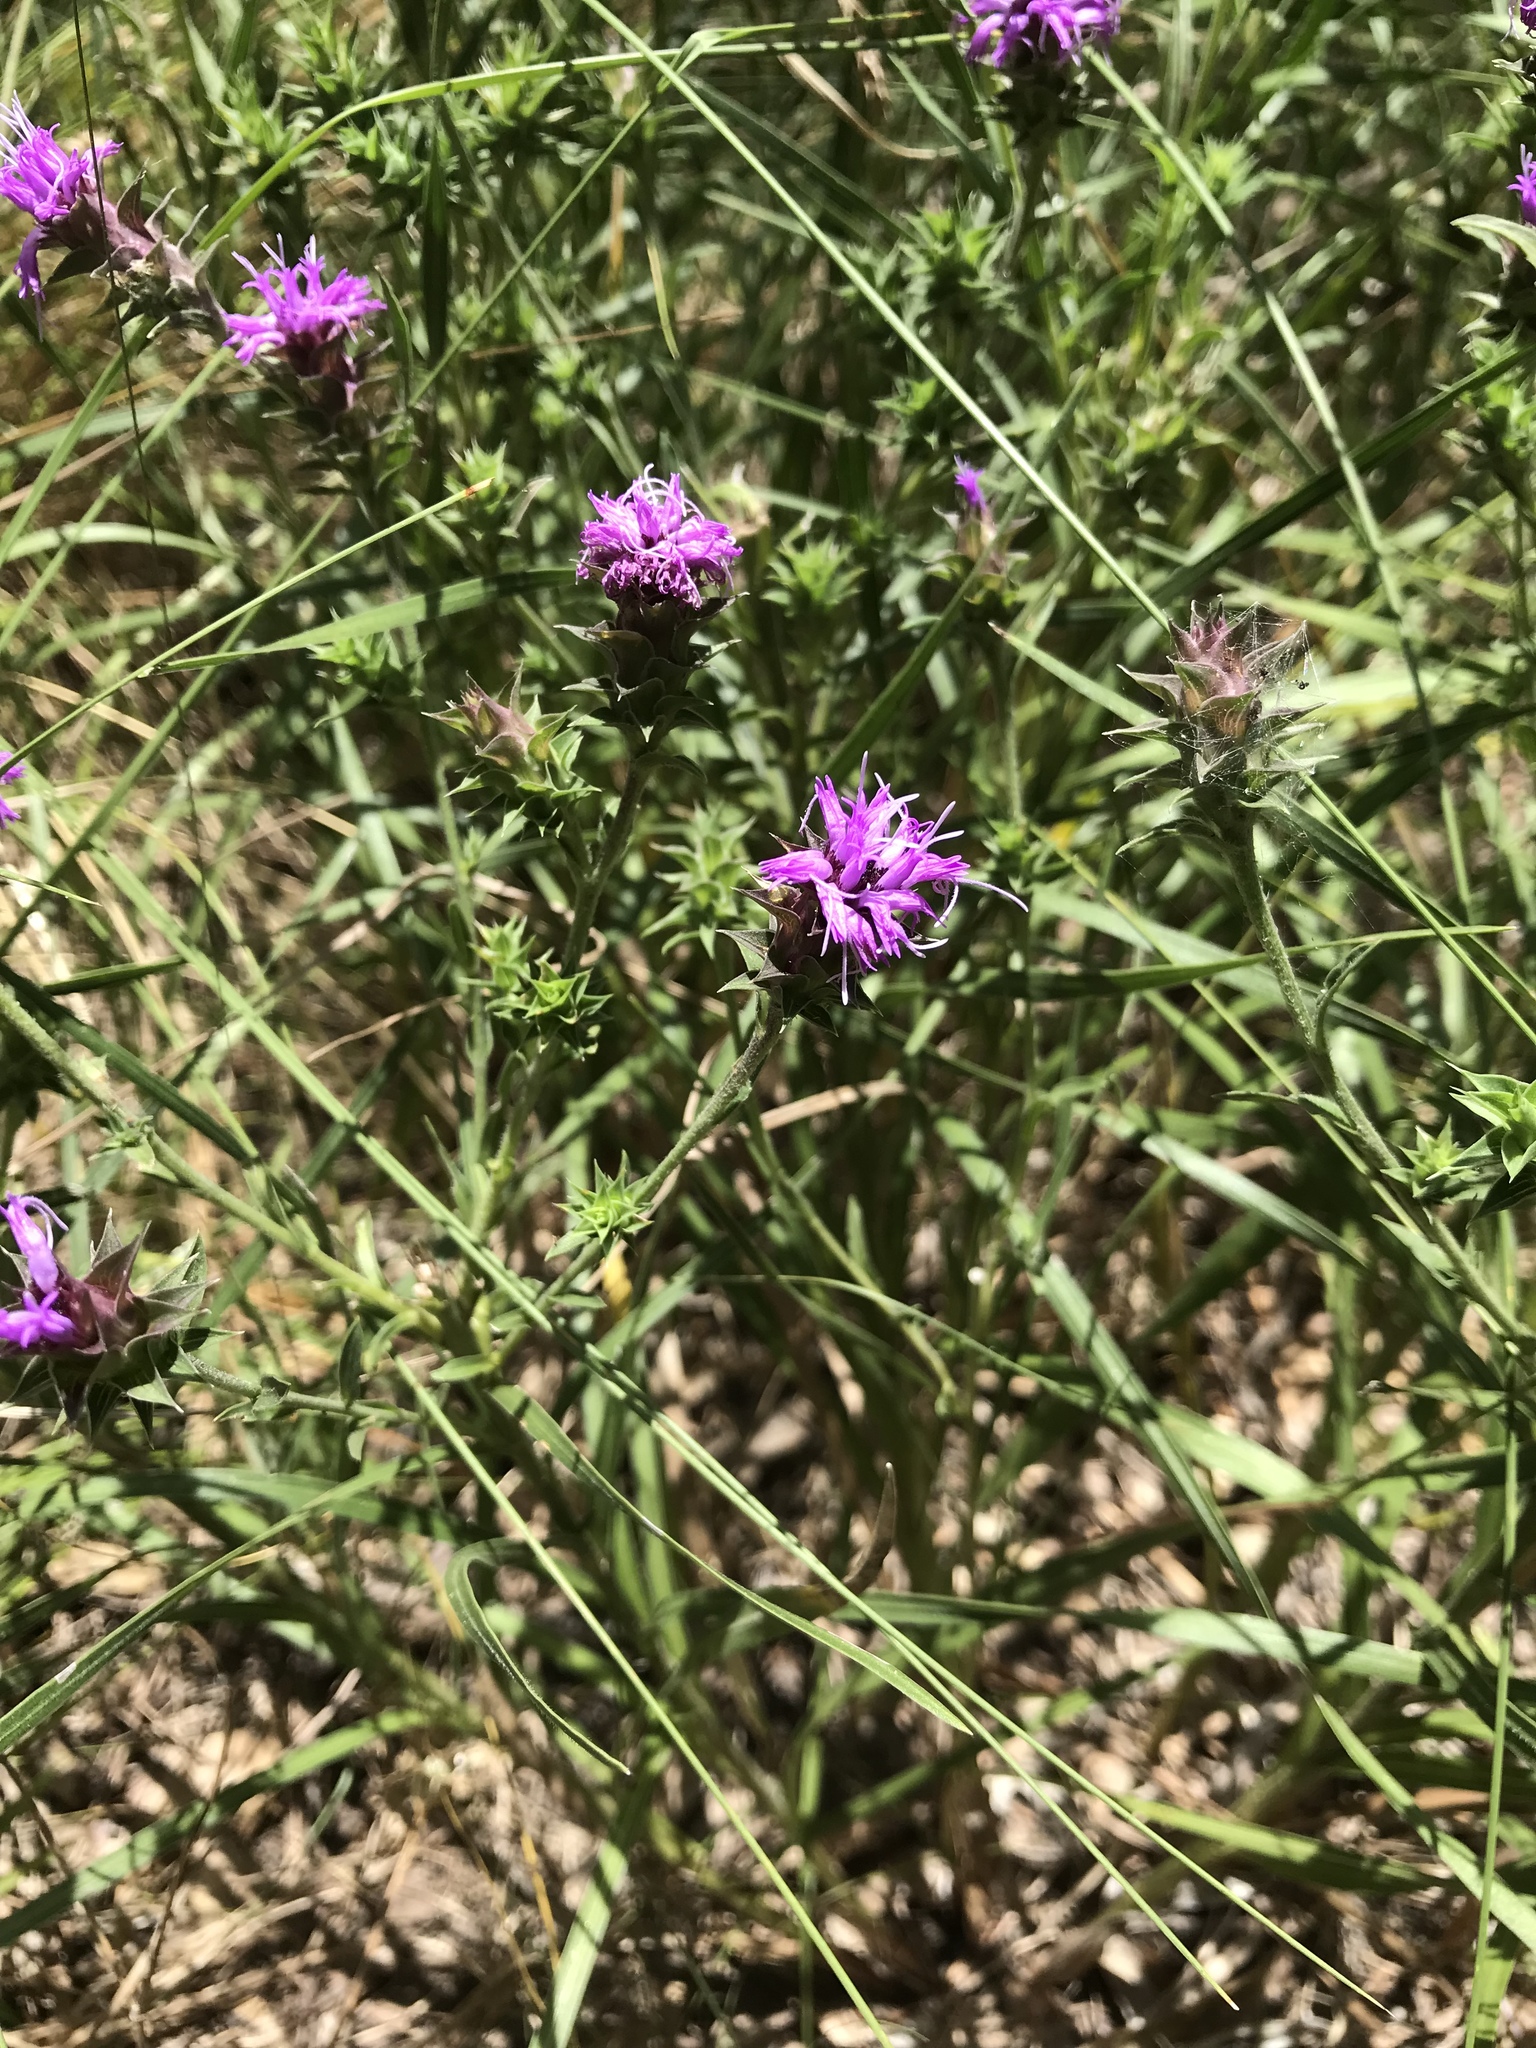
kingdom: Plantae
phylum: Tracheophyta
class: Magnoliopsida
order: Asterales
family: Asteraceae
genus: Liatris
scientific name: Liatris squarrosa
